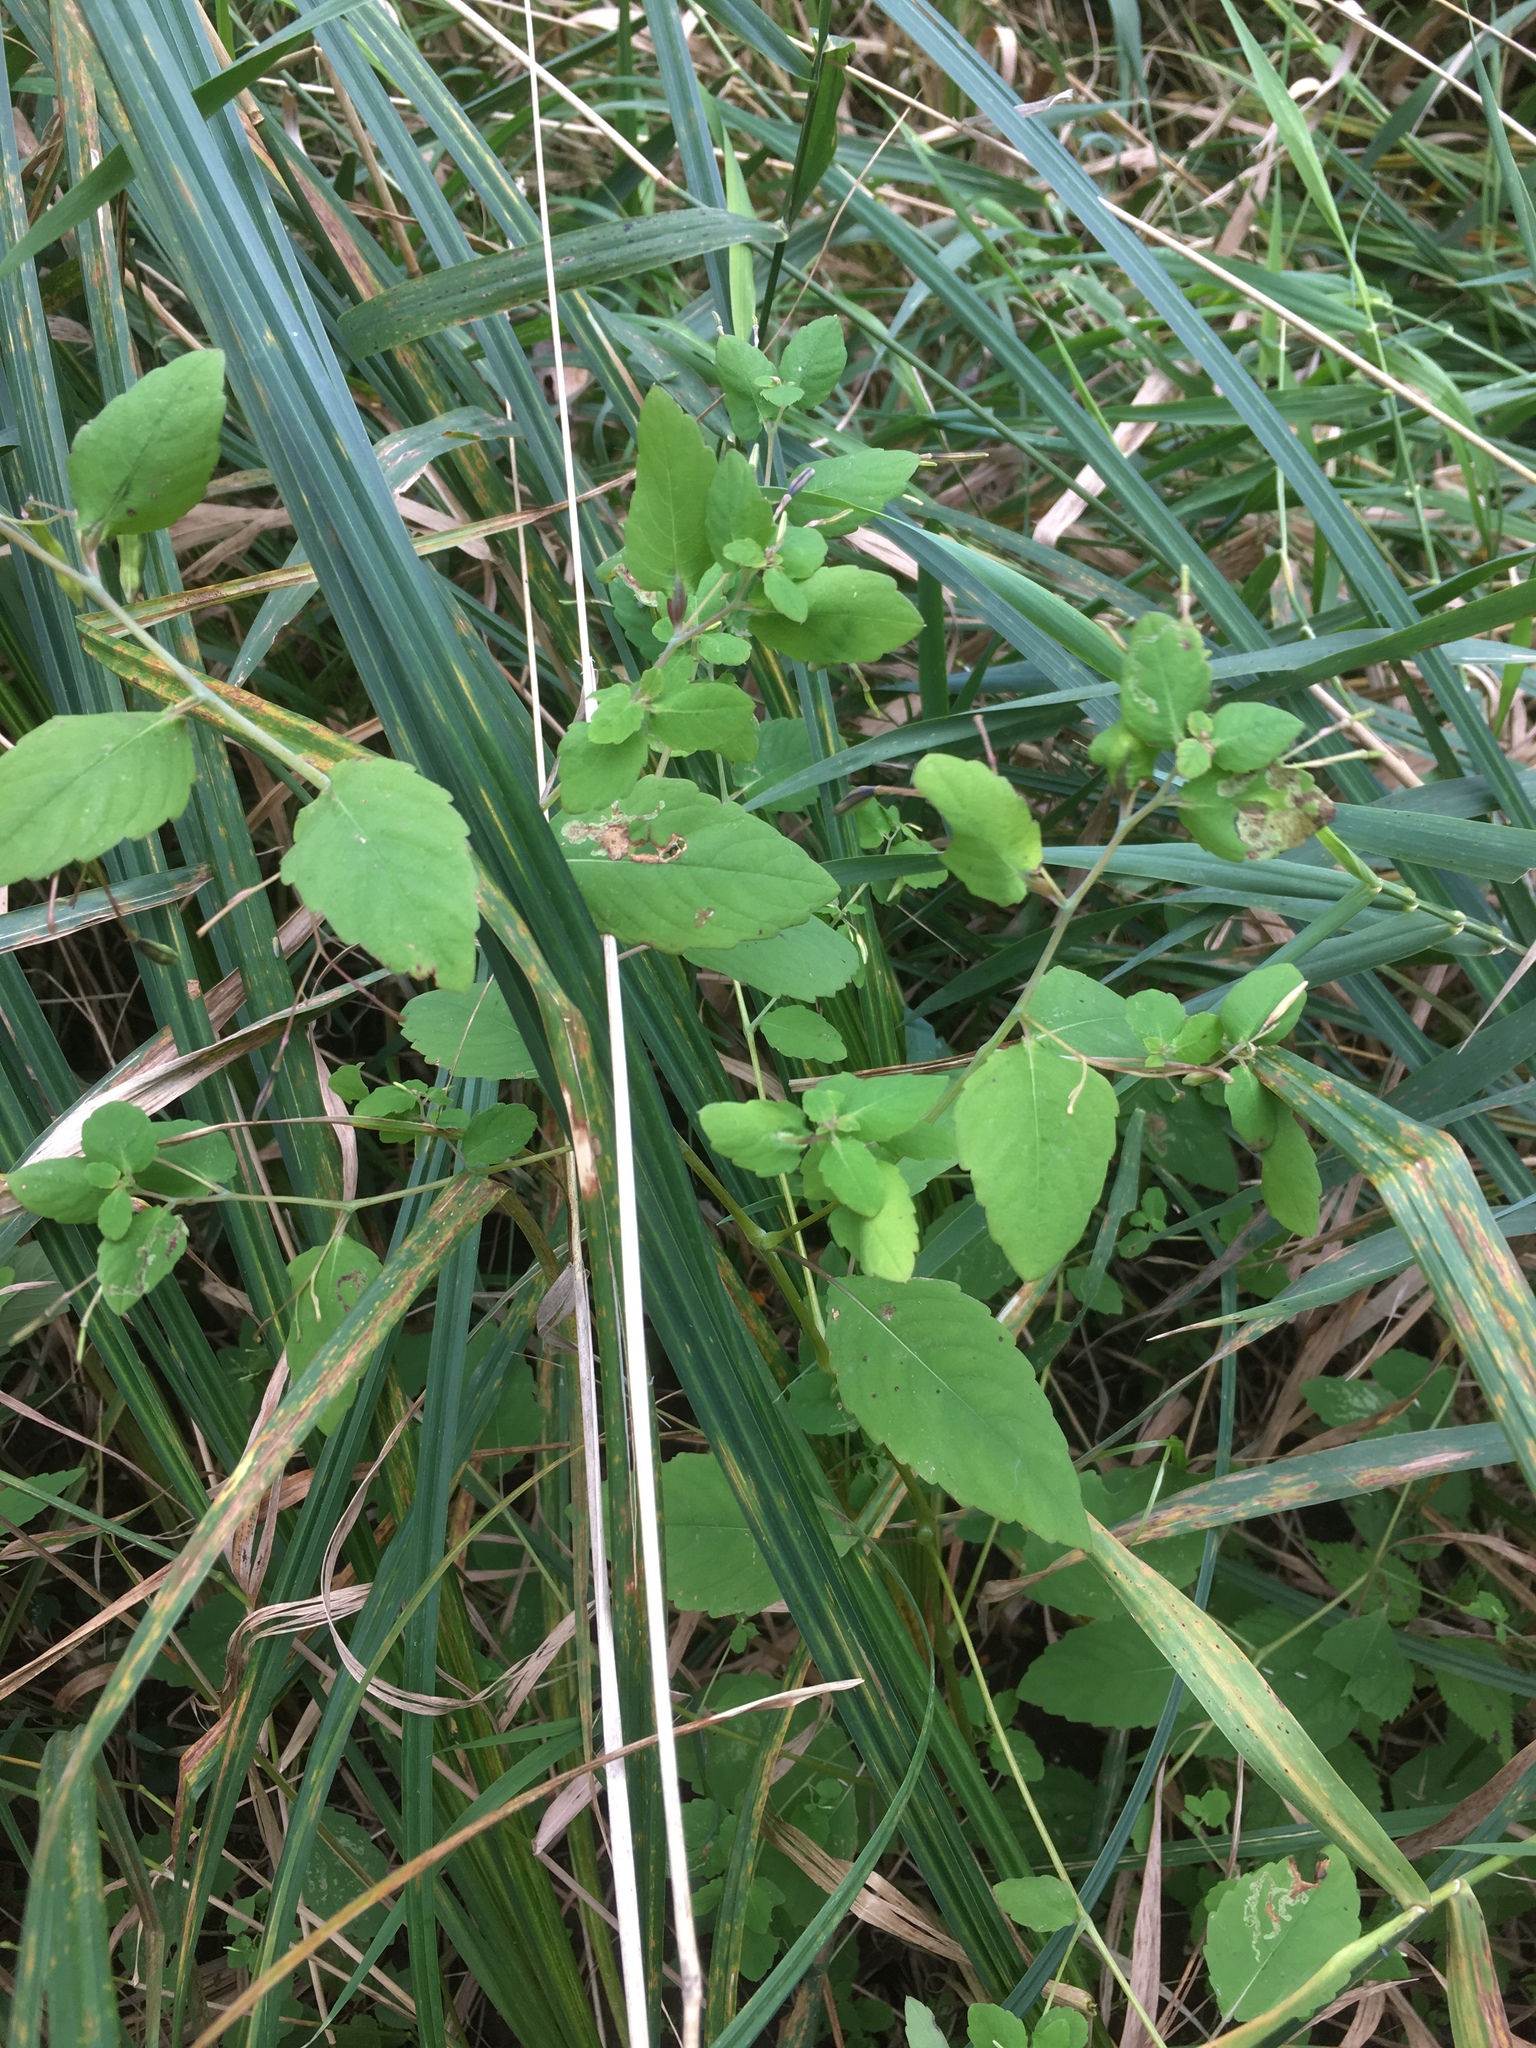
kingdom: Plantae
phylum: Tracheophyta
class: Magnoliopsida
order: Ericales
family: Balsaminaceae
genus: Impatiens
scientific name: Impatiens capensis
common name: Orange balsam
